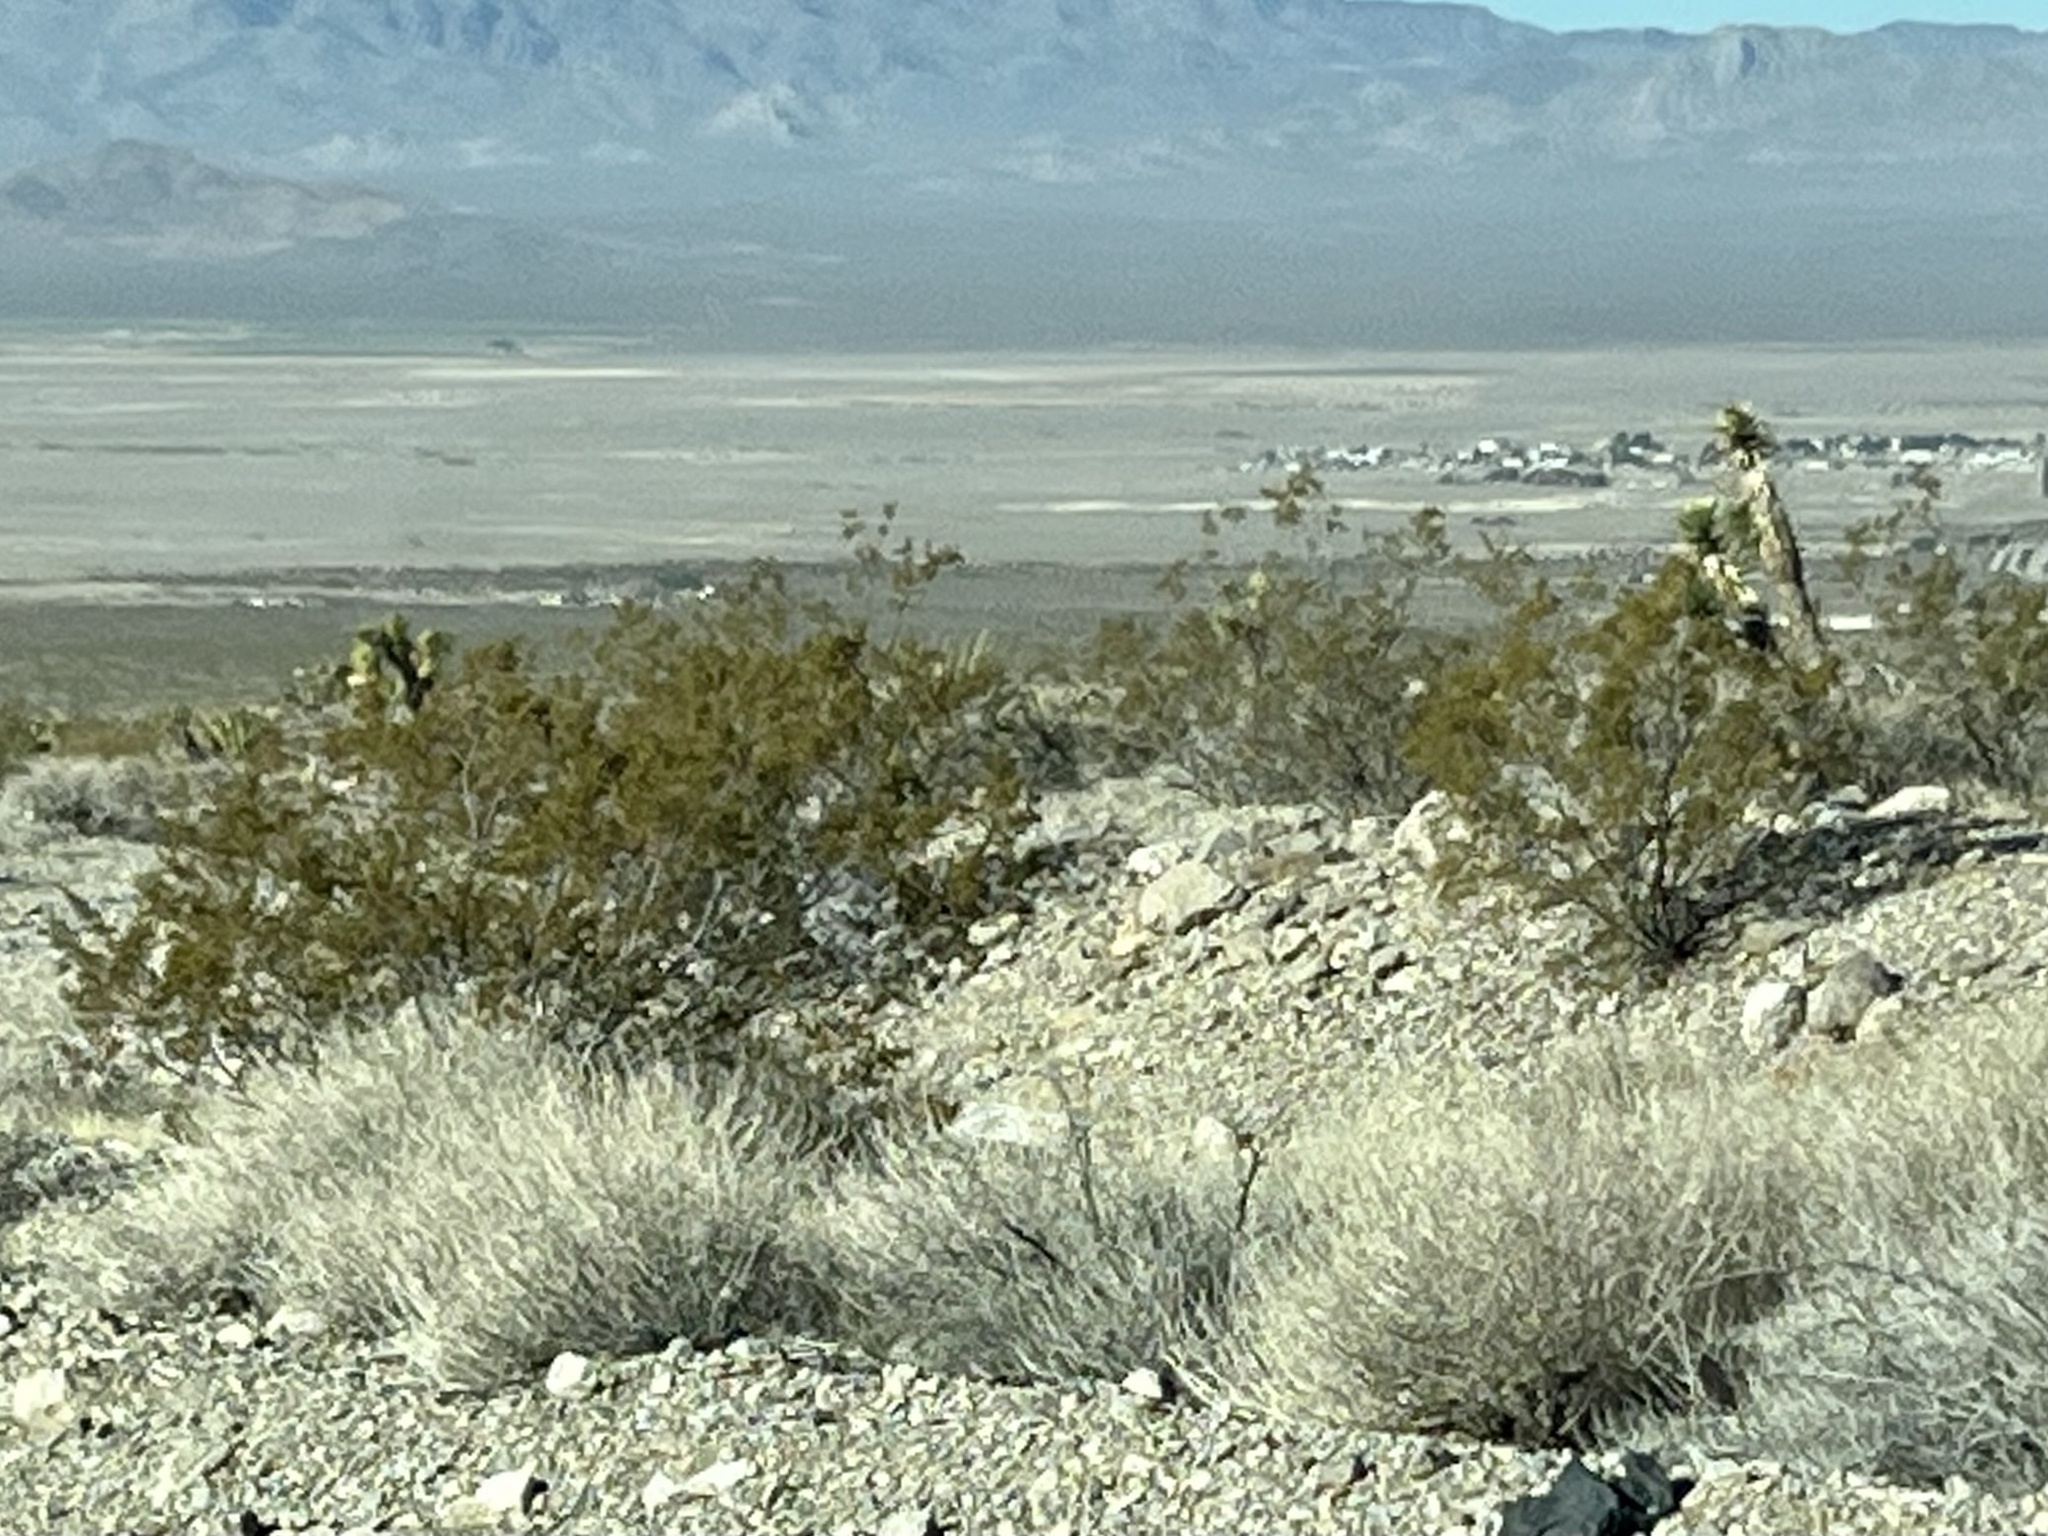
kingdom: Plantae
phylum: Tracheophyta
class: Magnoliopsida
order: Zygophyllales
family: Zygophyllaceae
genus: Larrea
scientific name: Larrea tridentata
